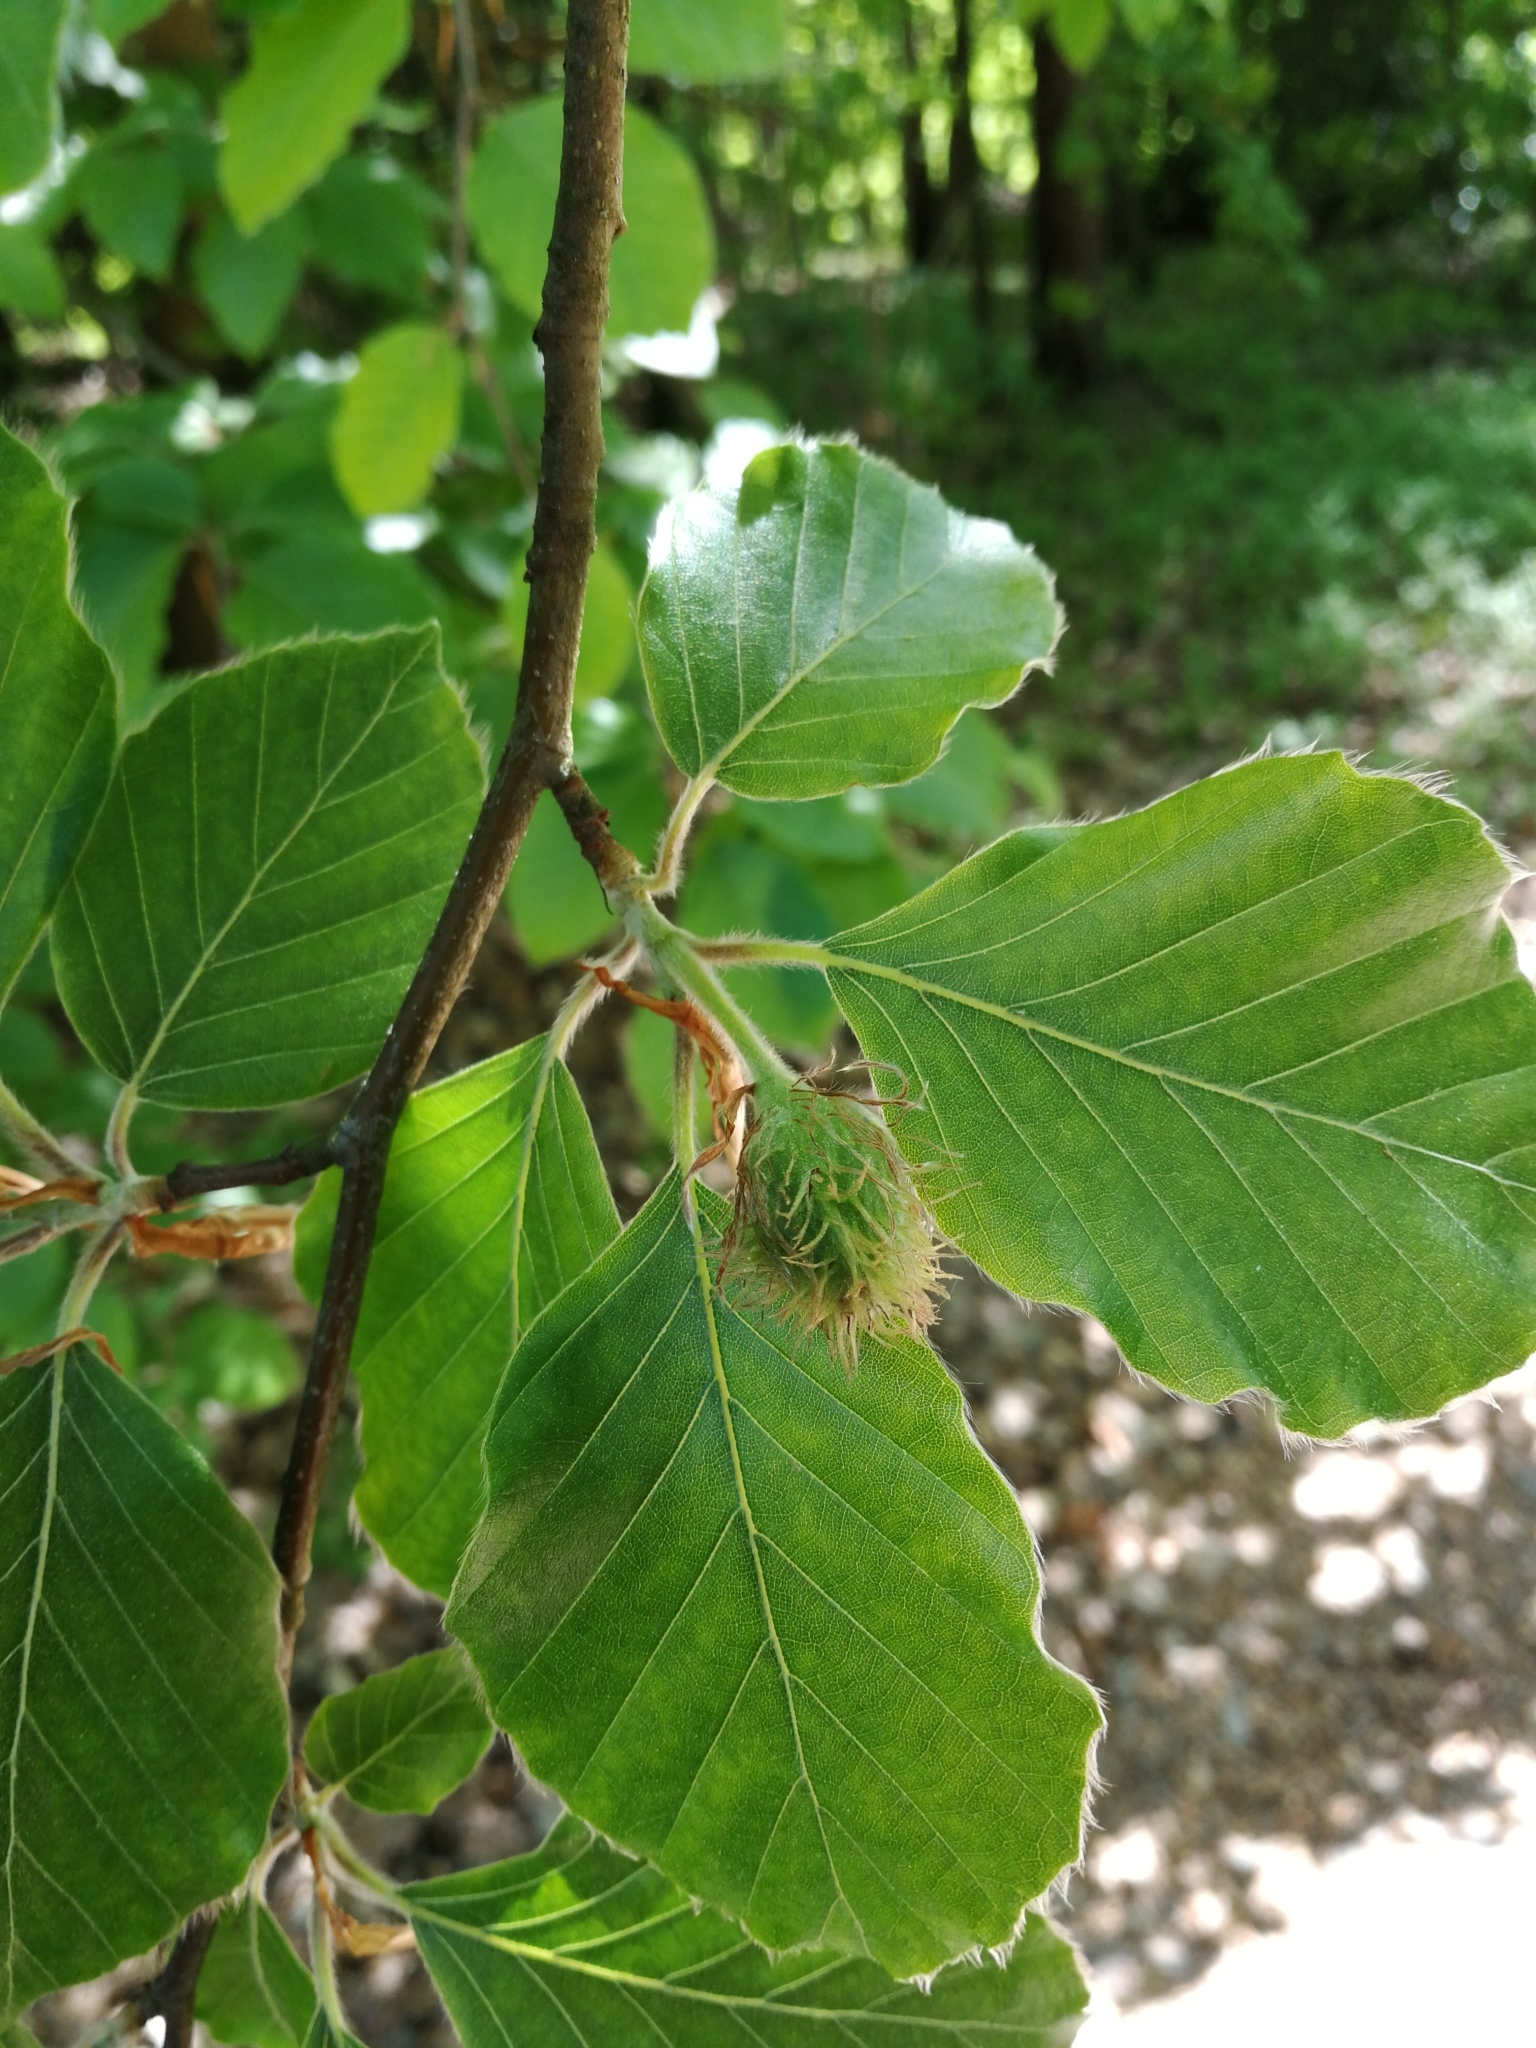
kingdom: Plantae
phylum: Tracheophyta
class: Magnoliopsida
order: Fagales
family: Fagaceae
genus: Fagus
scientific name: Fagus sylvatica
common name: Beech
